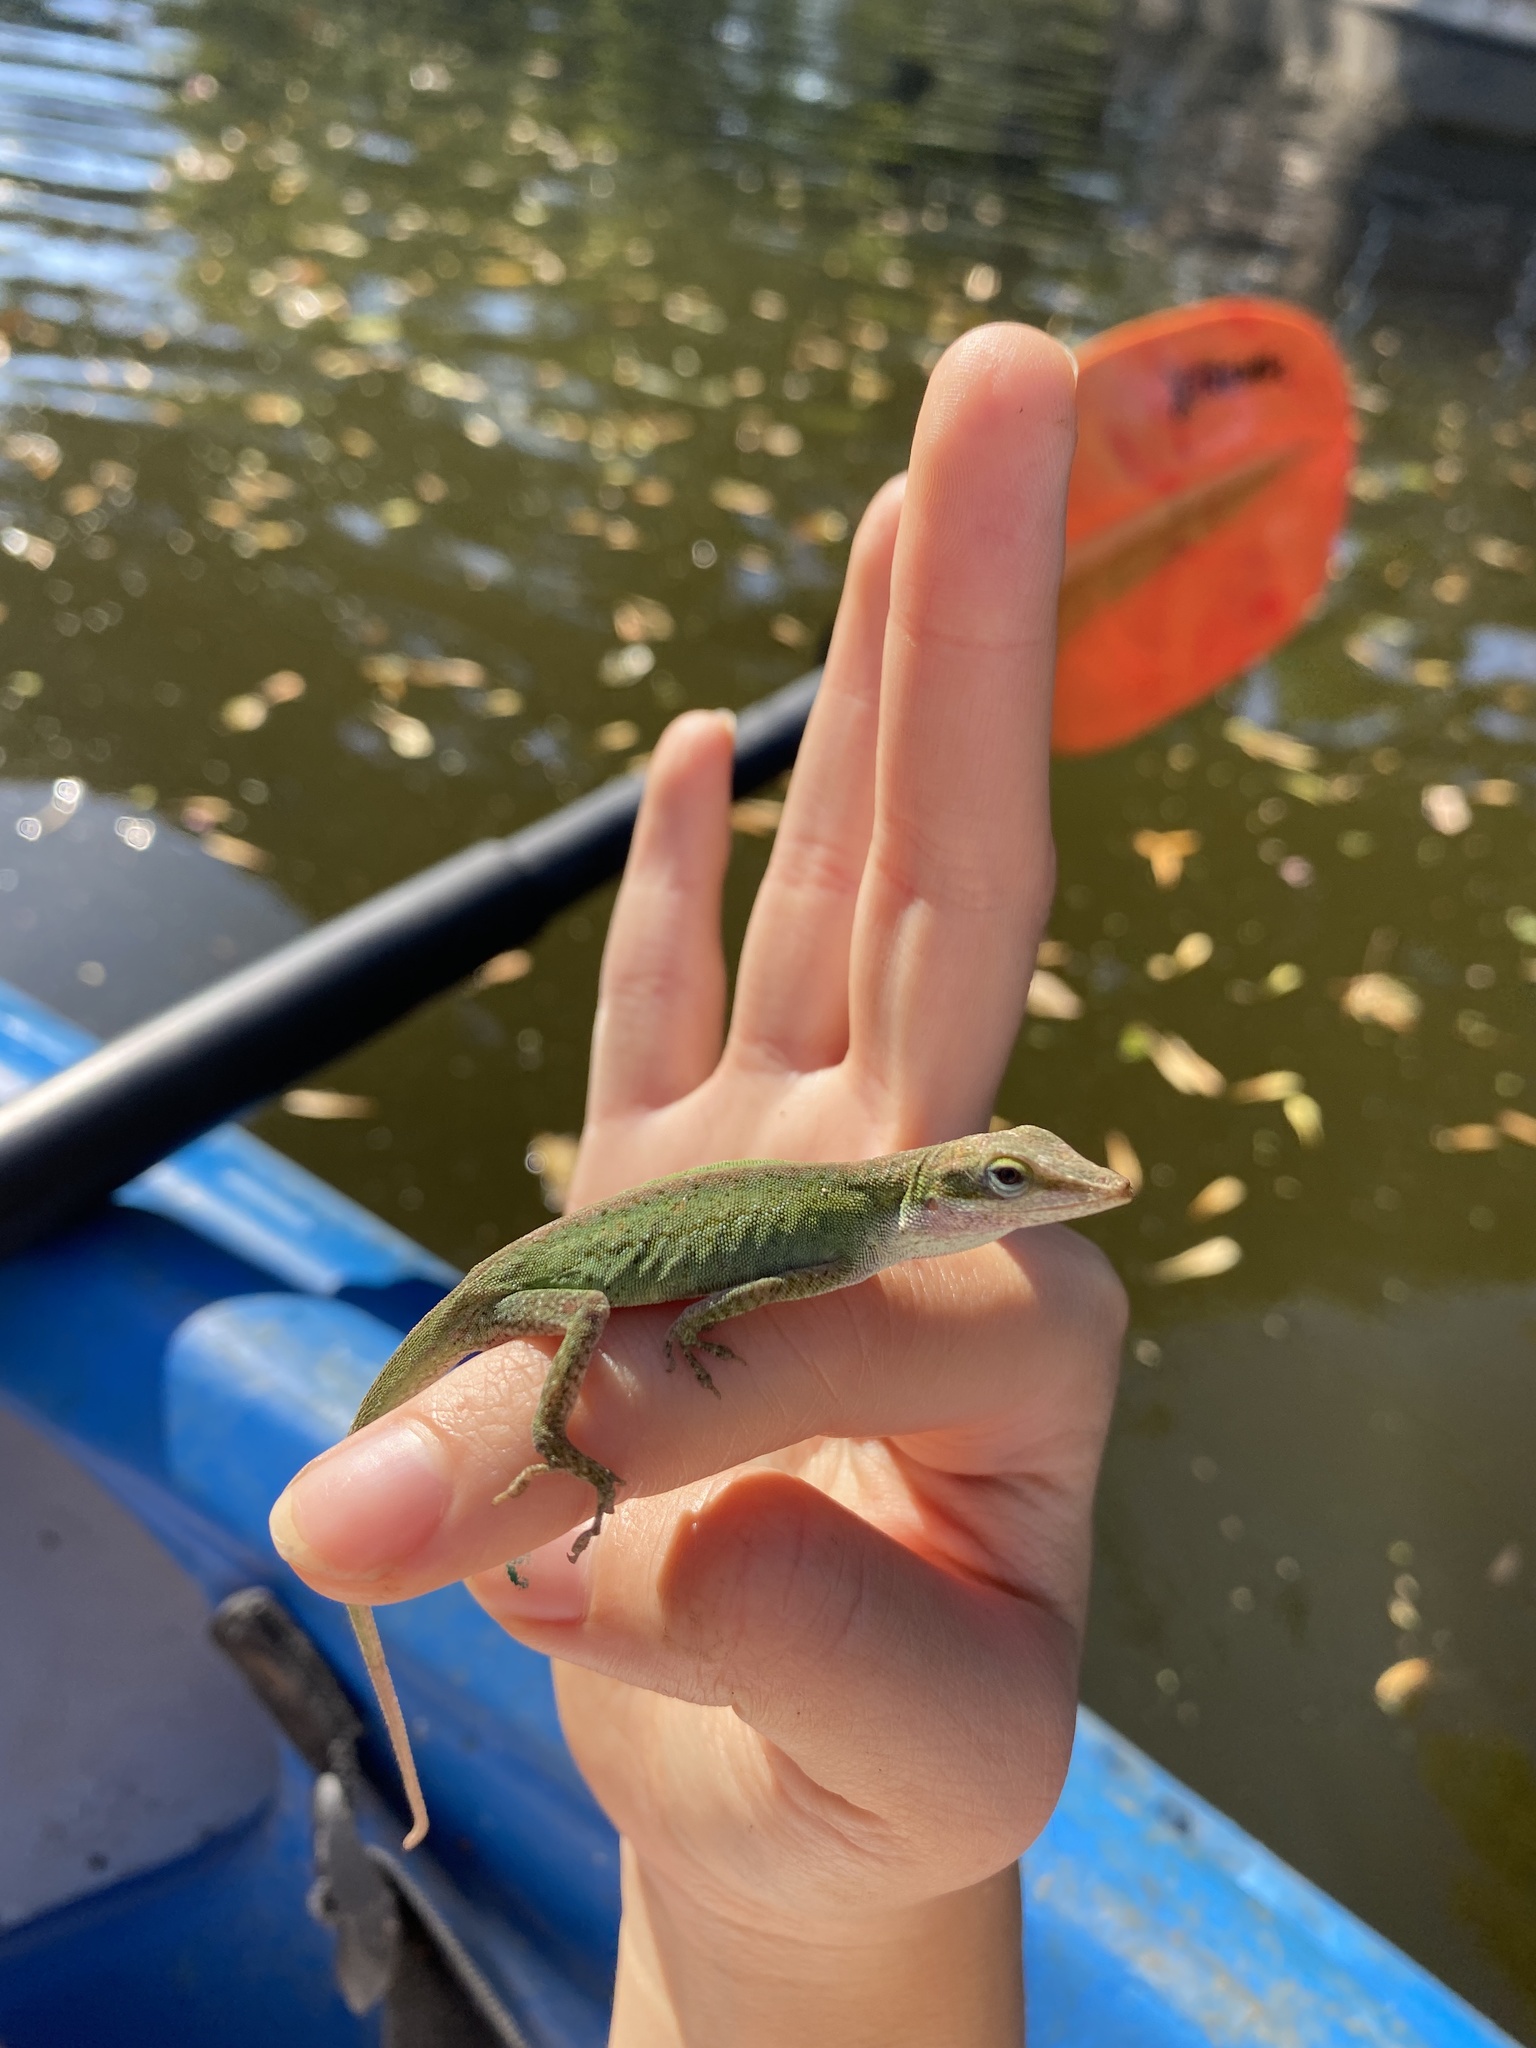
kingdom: Animalia
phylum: Chordata
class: Squamata
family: Dactyloidae
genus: Anolis
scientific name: Anolis carolinensis
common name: Green anole
